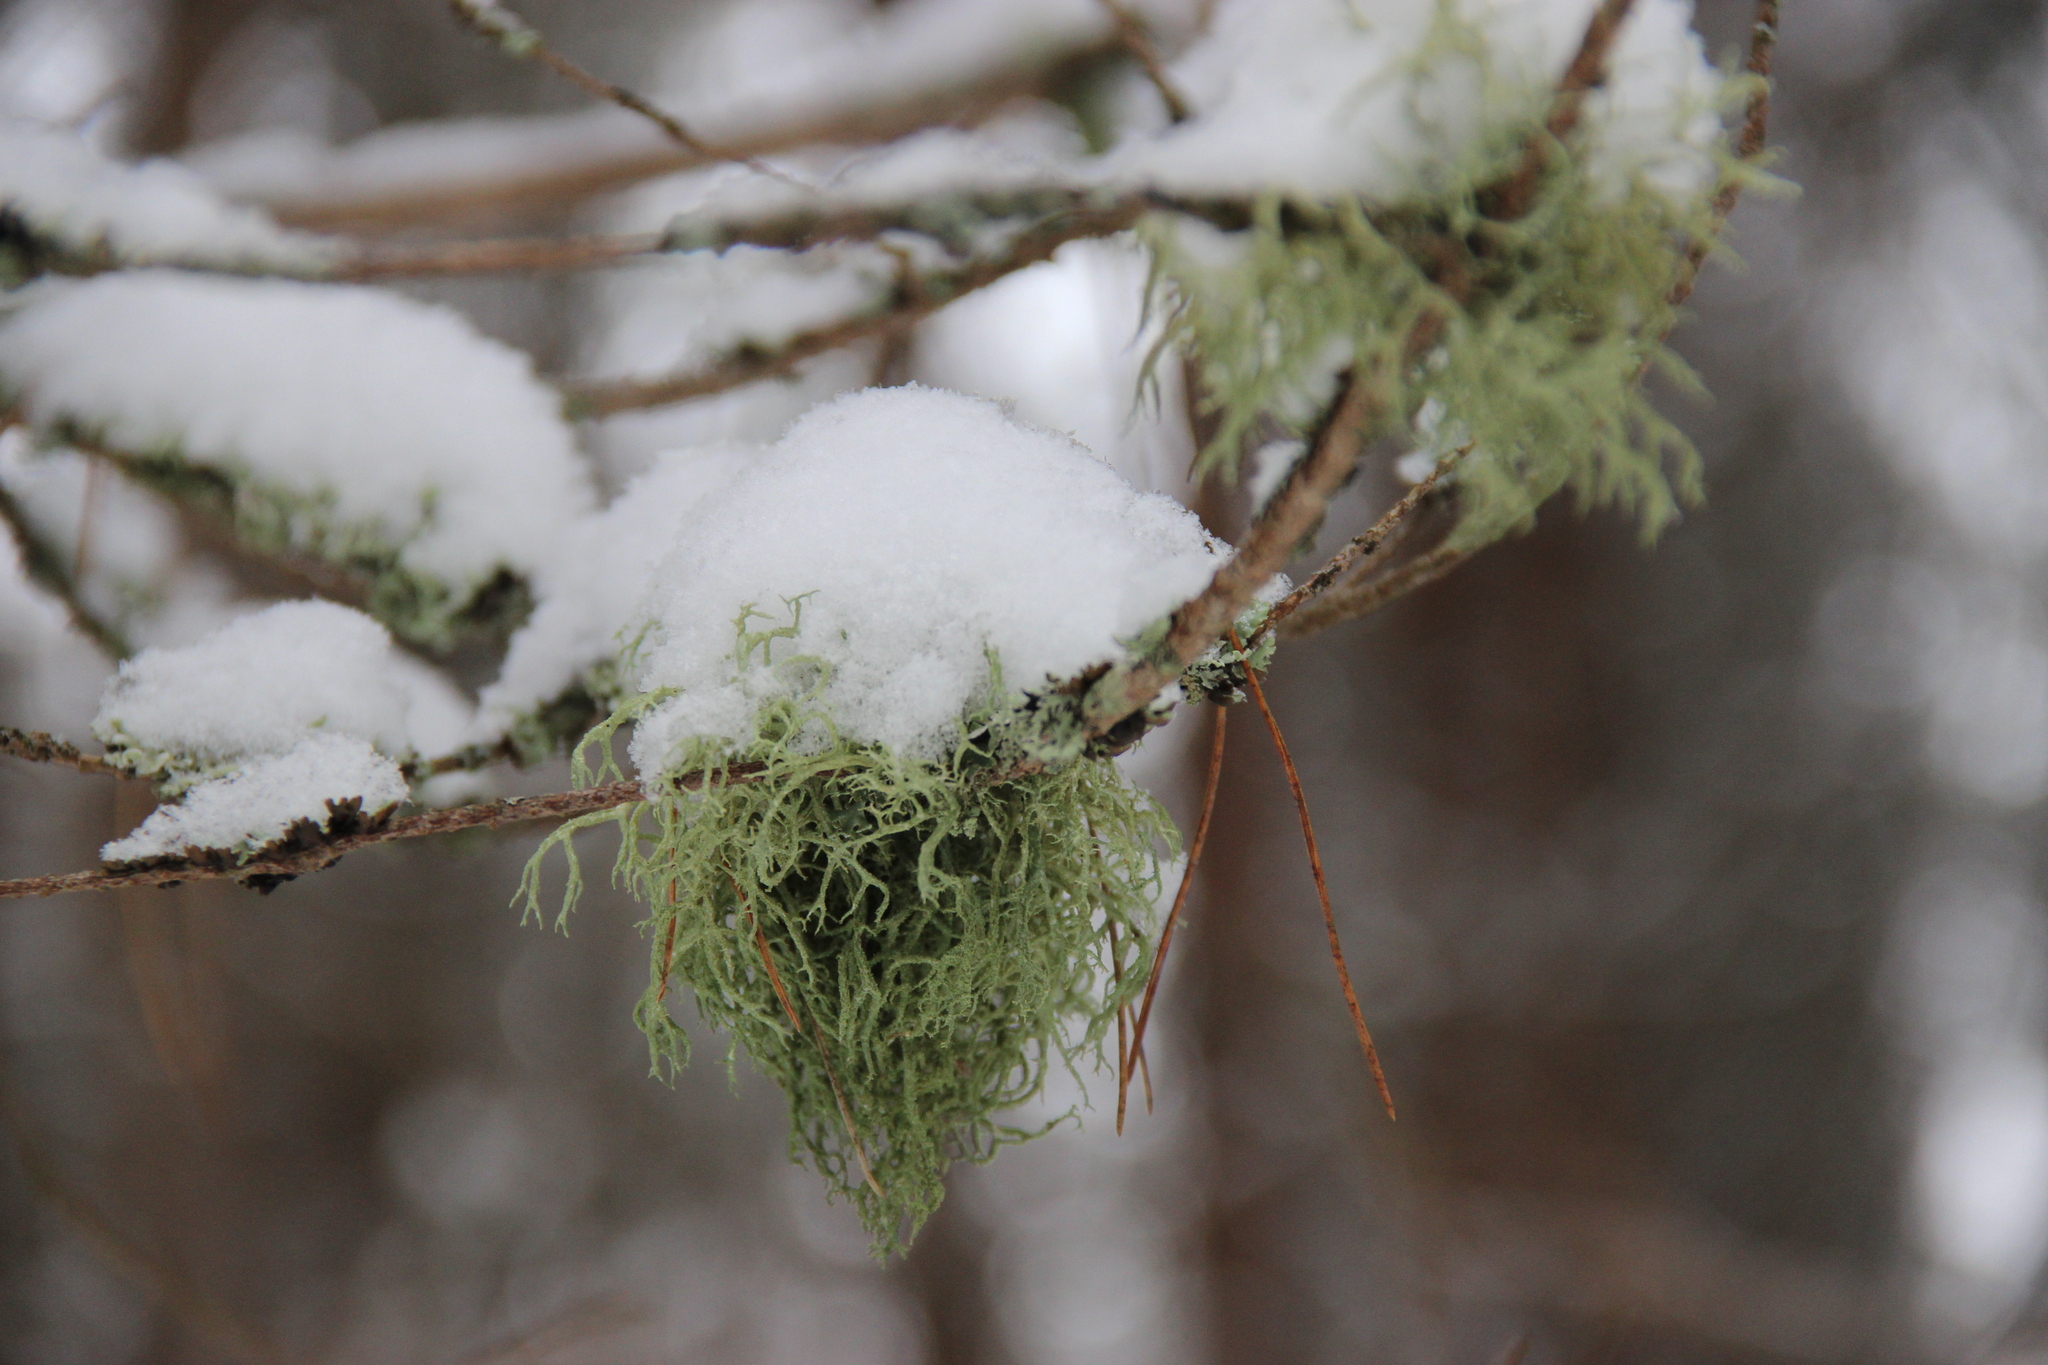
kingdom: Fungi
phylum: Ascomycota
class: Lecanoromycetes
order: Lecanorales
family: Parmeliaceae
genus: Evernia
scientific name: Evernia mesomorpha
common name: Boreal oak moss lichen
